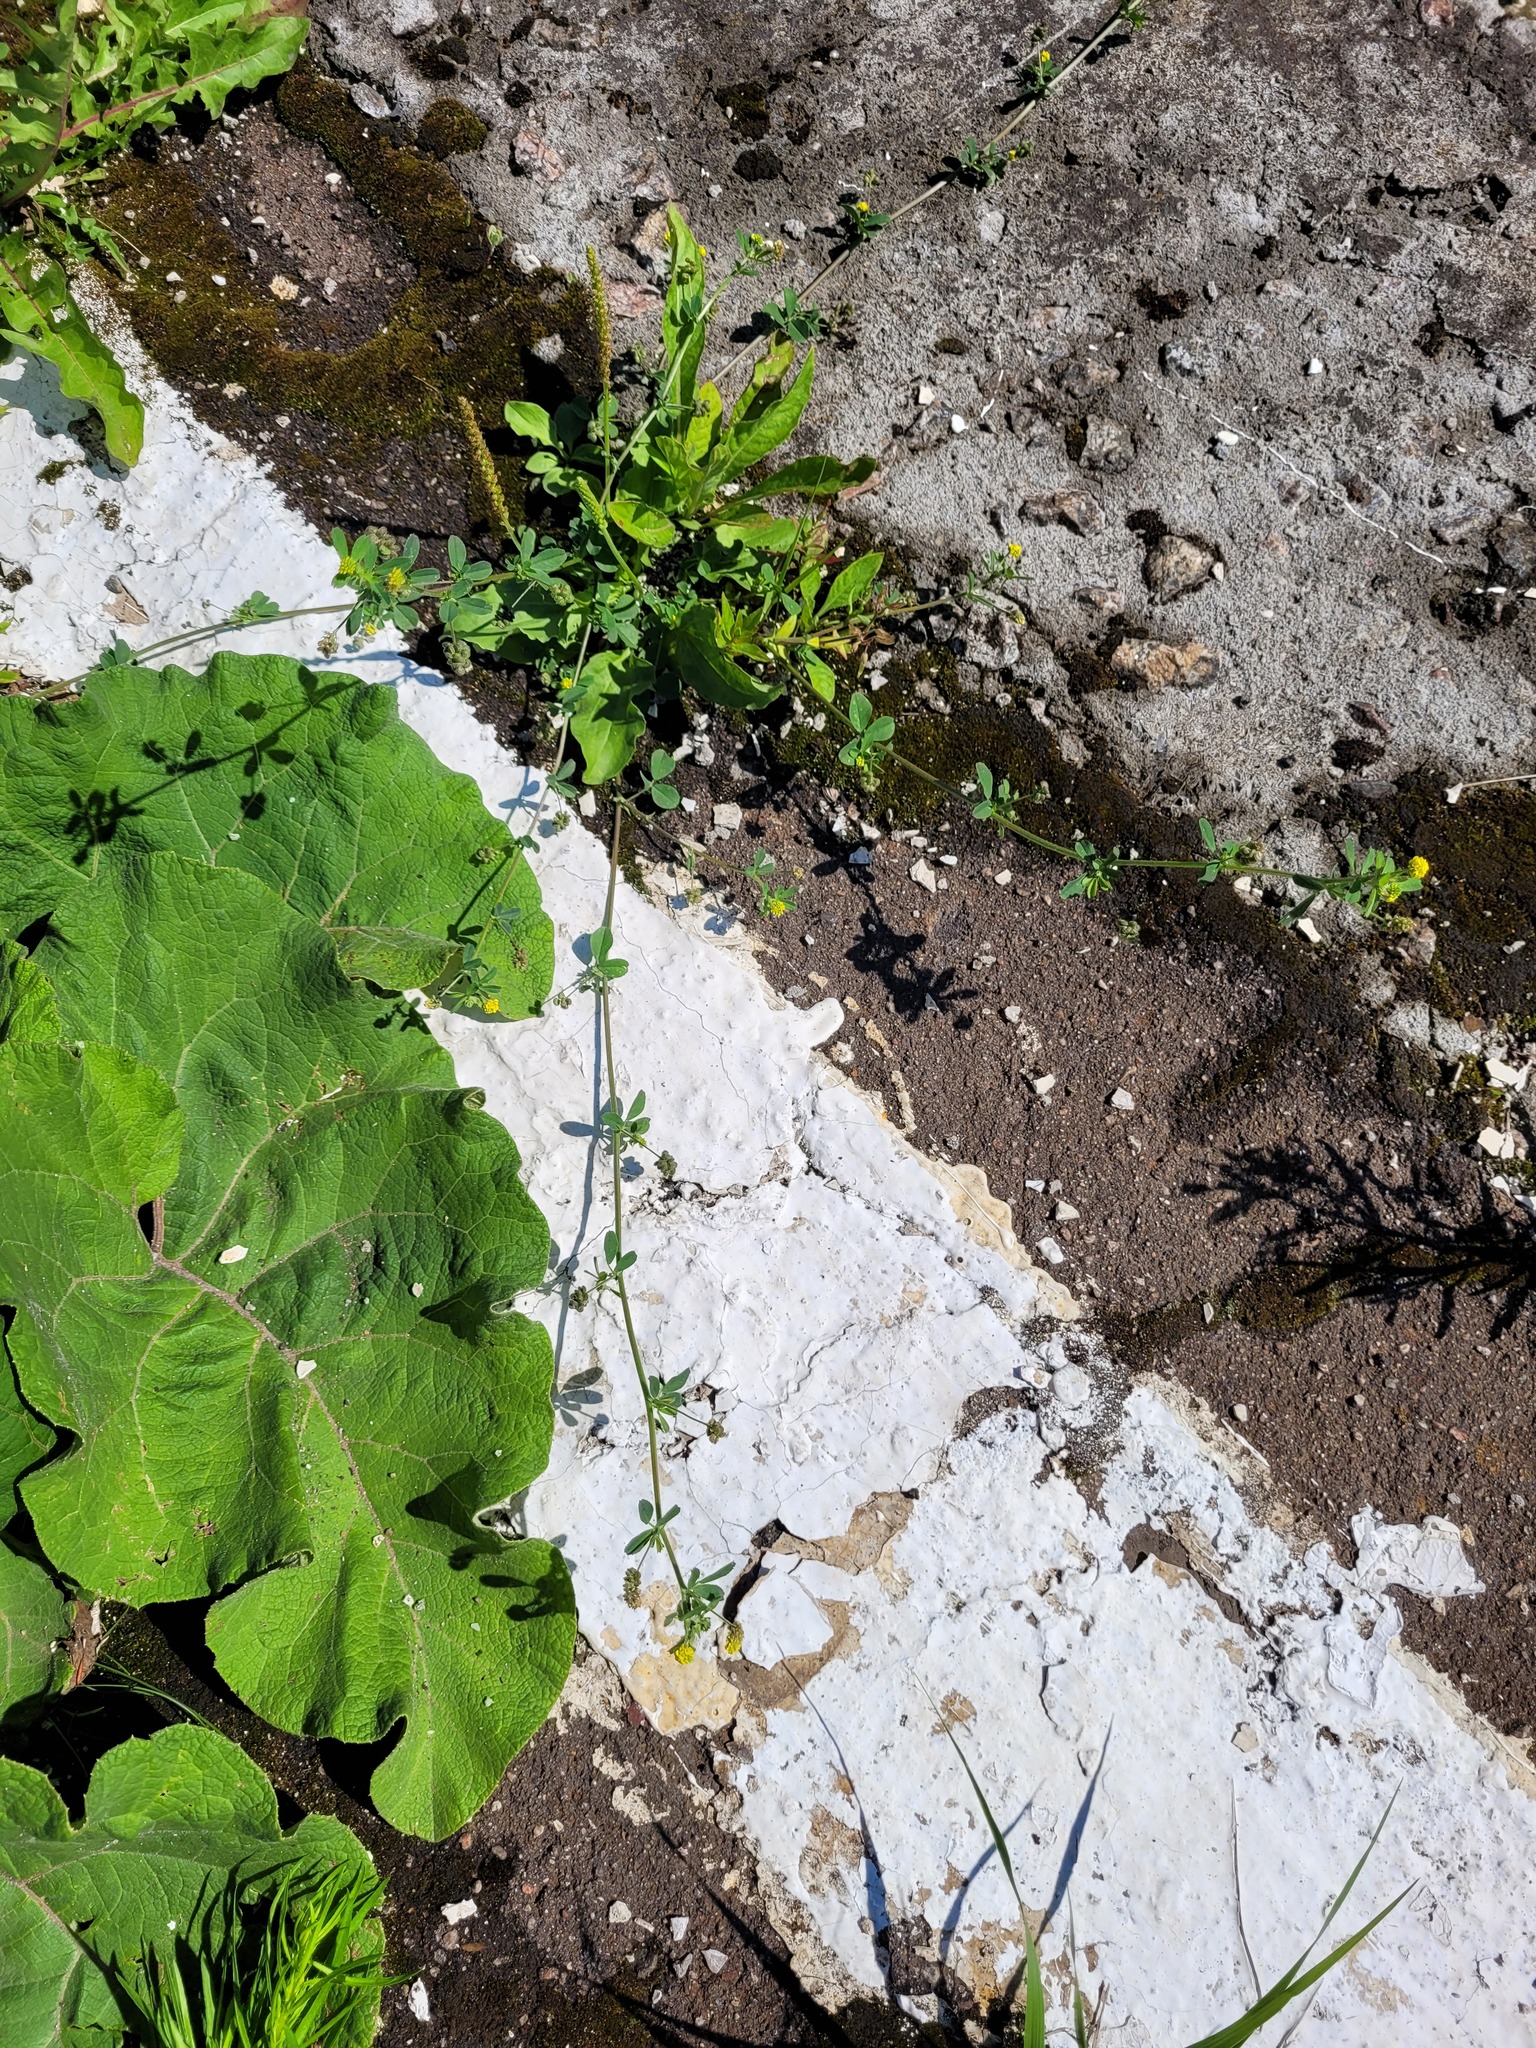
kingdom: Plantae
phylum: Tracheophyta
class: Magnoliopsida
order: Fabales
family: Fabaceae
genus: Medicago
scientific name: Medicago lupulina
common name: Black medick
